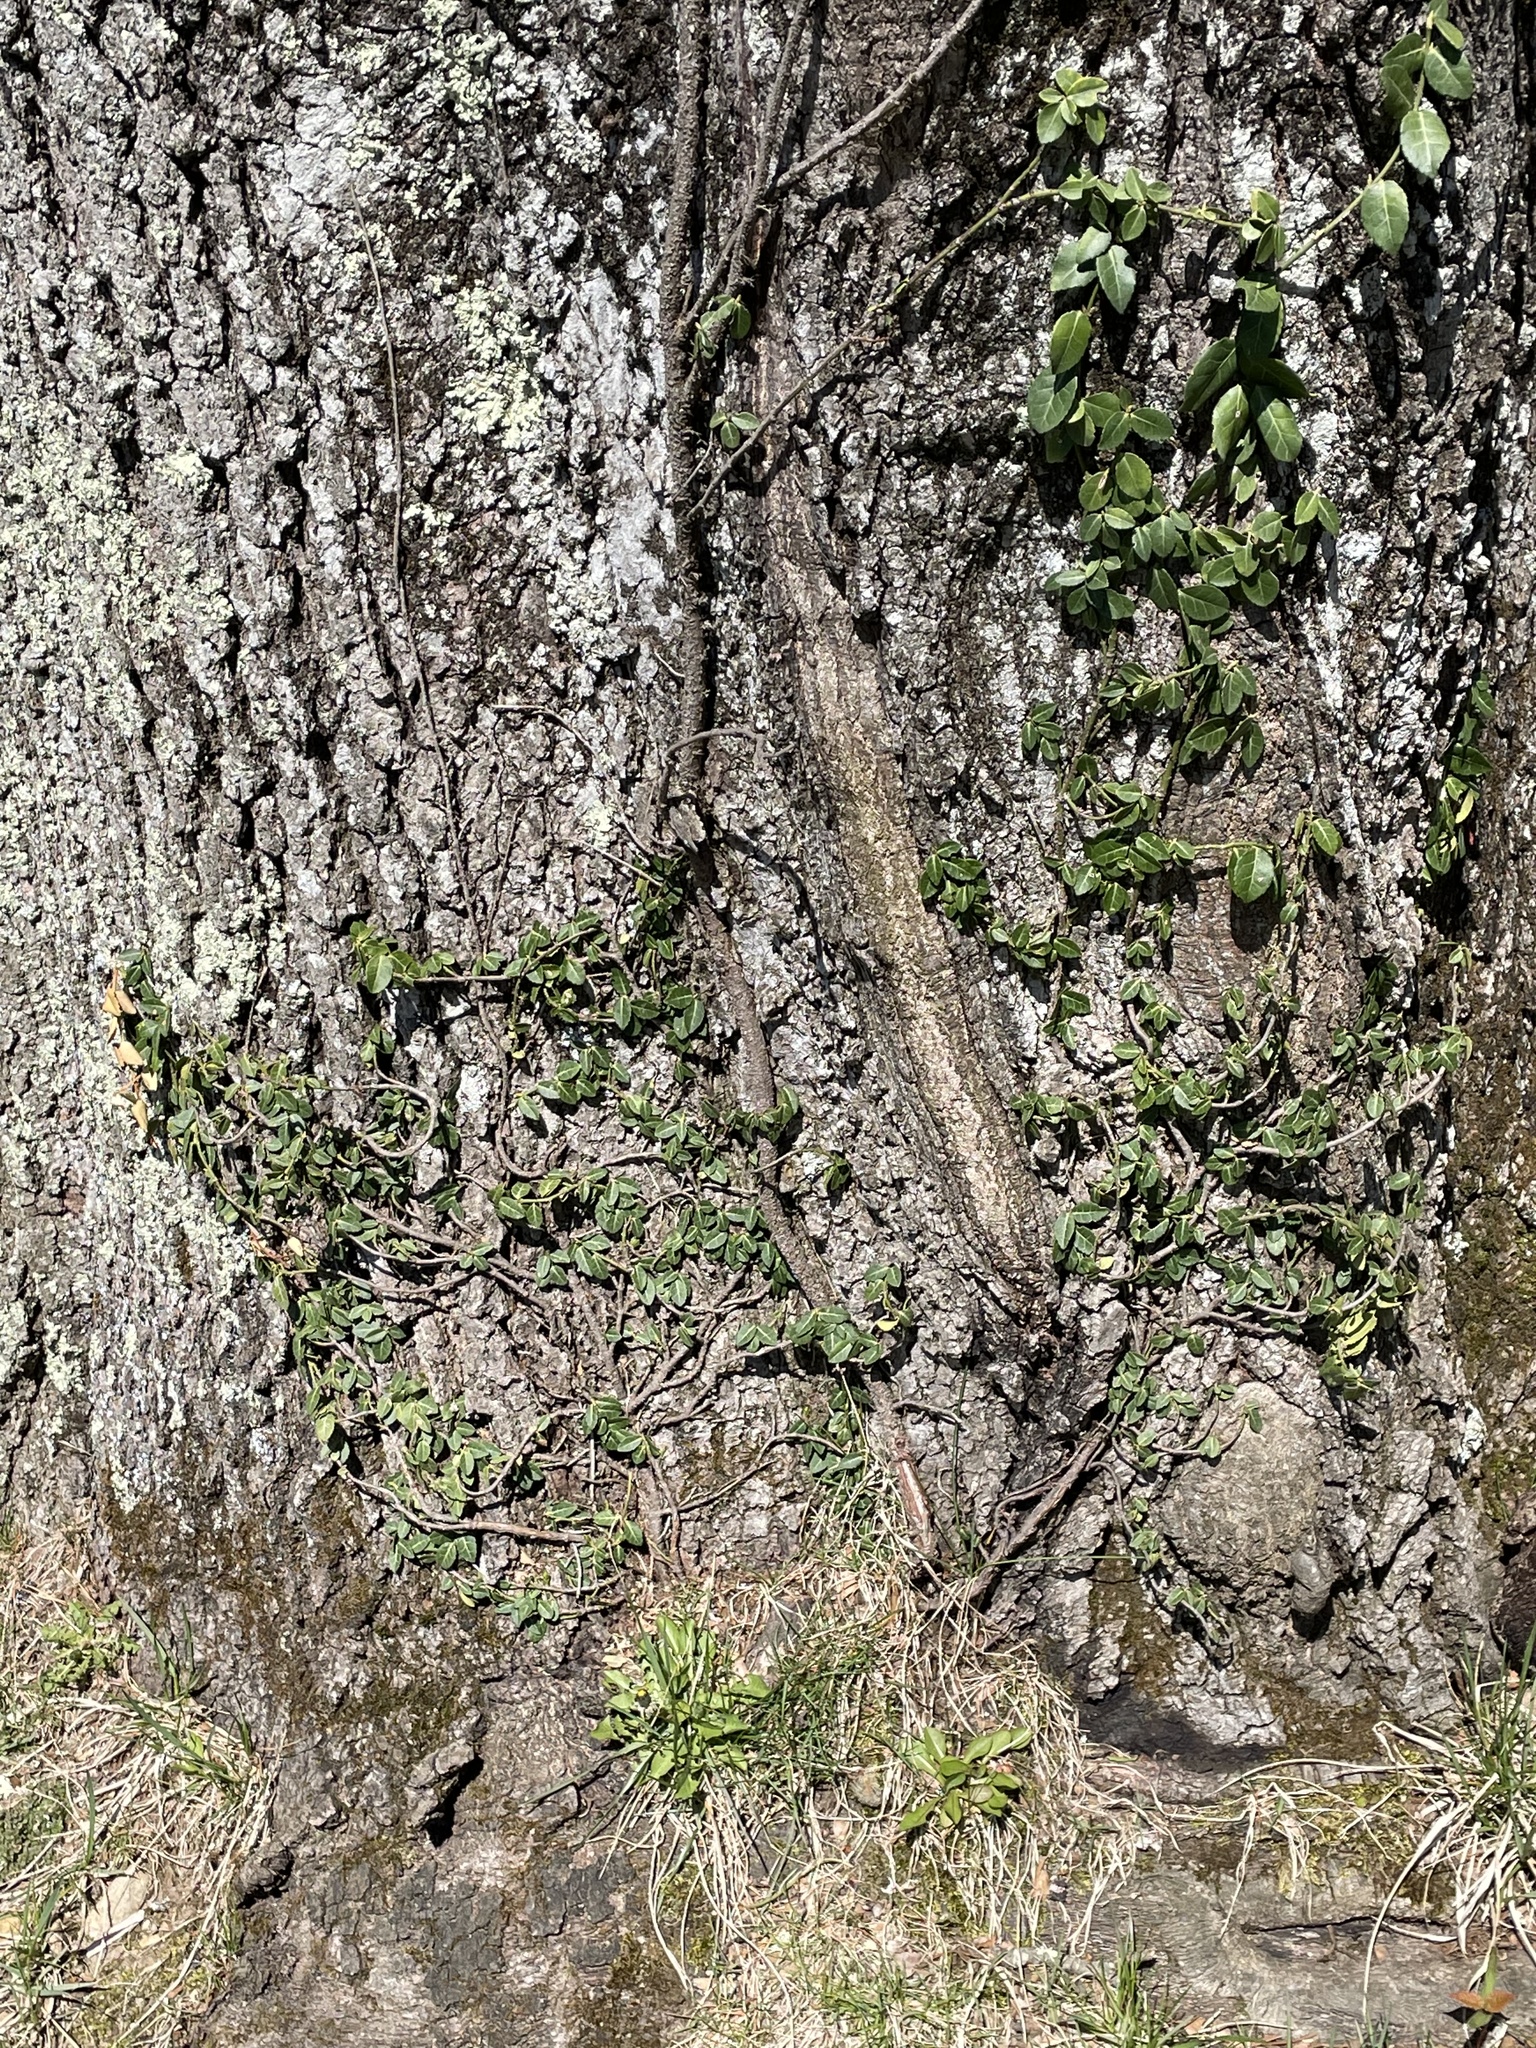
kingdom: Plantae
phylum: Tracheophyta
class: Magnoliopsida
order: Celastrales
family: Celastraceae
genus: Euonymus
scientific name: Euonymus fortunei
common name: Climbing euonymus
